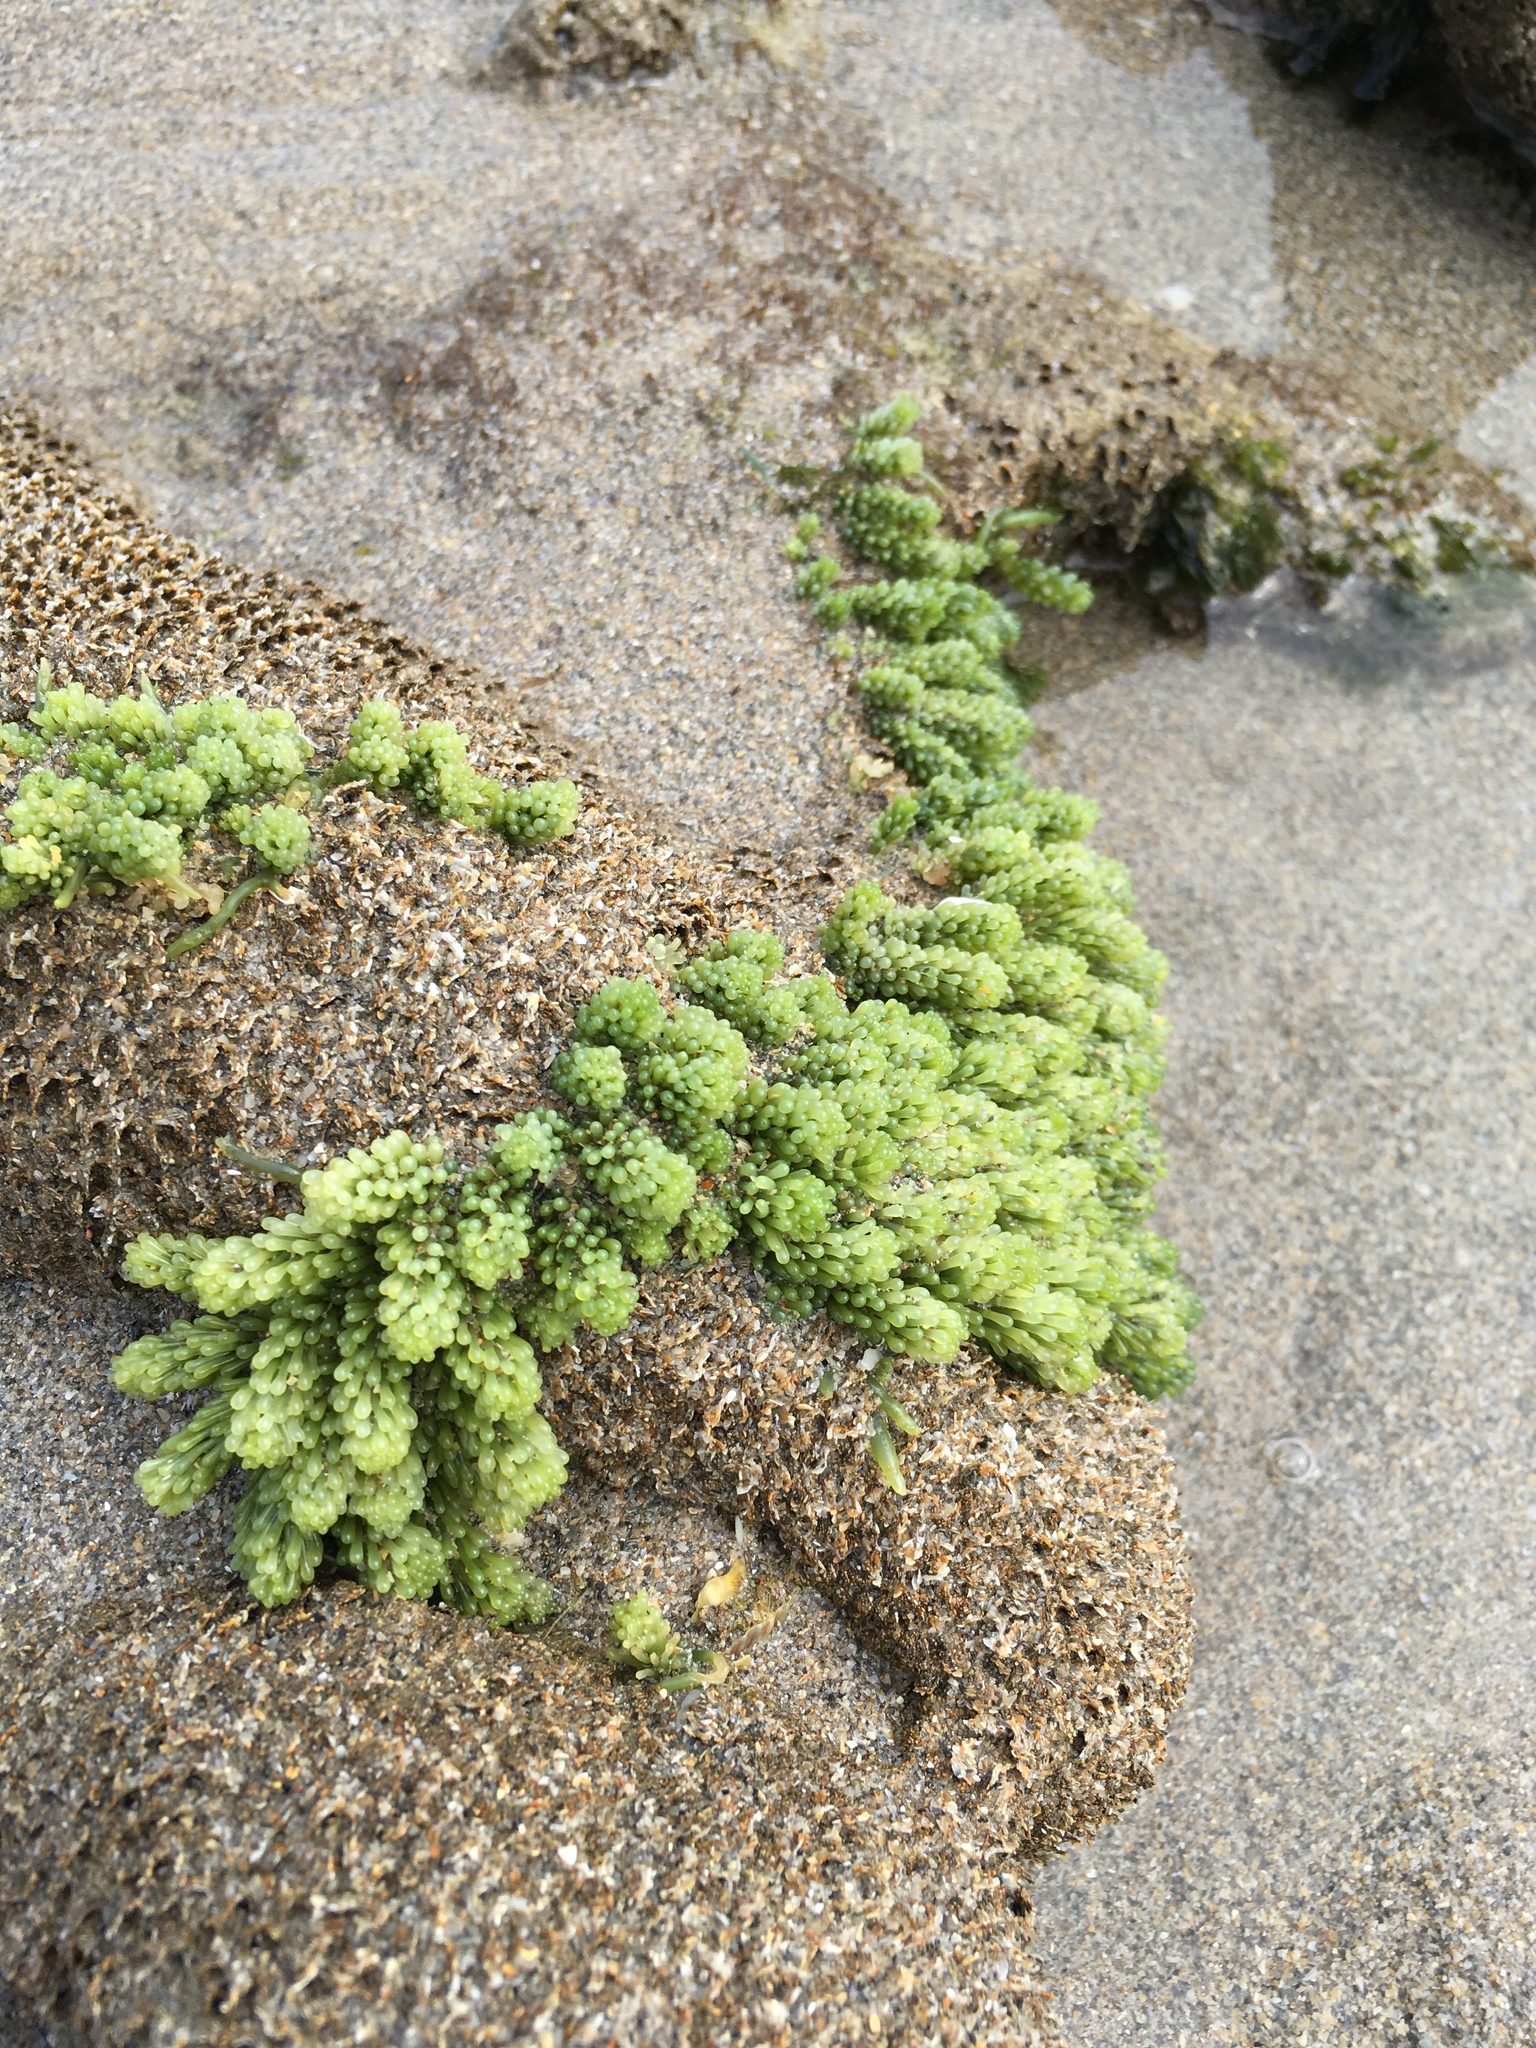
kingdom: Plantae
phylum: Chlorophyta
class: Ulvophyceae
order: Bryopsidales
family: Caulerpaceae
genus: Caulerpa
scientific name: Caulerpa racemosa
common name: Green grape algae
